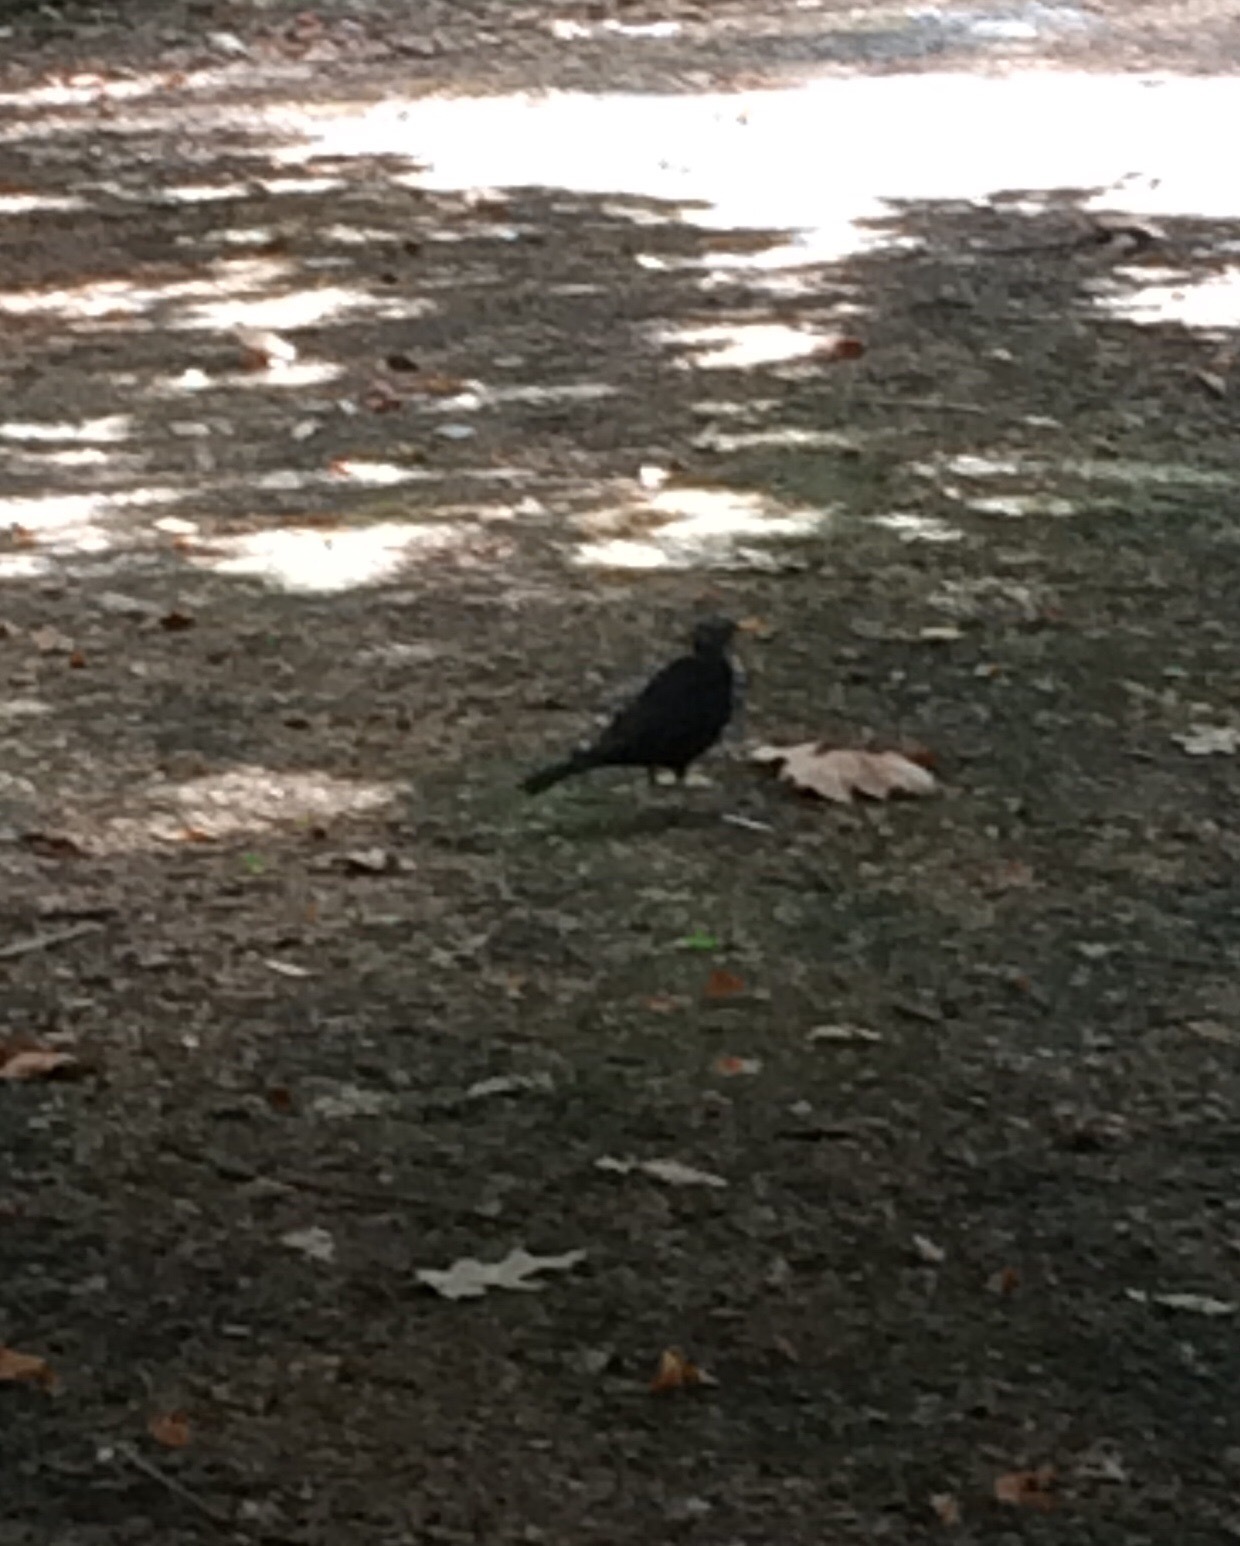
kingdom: Animalia
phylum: Chordata
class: Aves
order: Passeriformes
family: Turdidae
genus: Turdus
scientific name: Turdus merula
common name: Common blackbird
